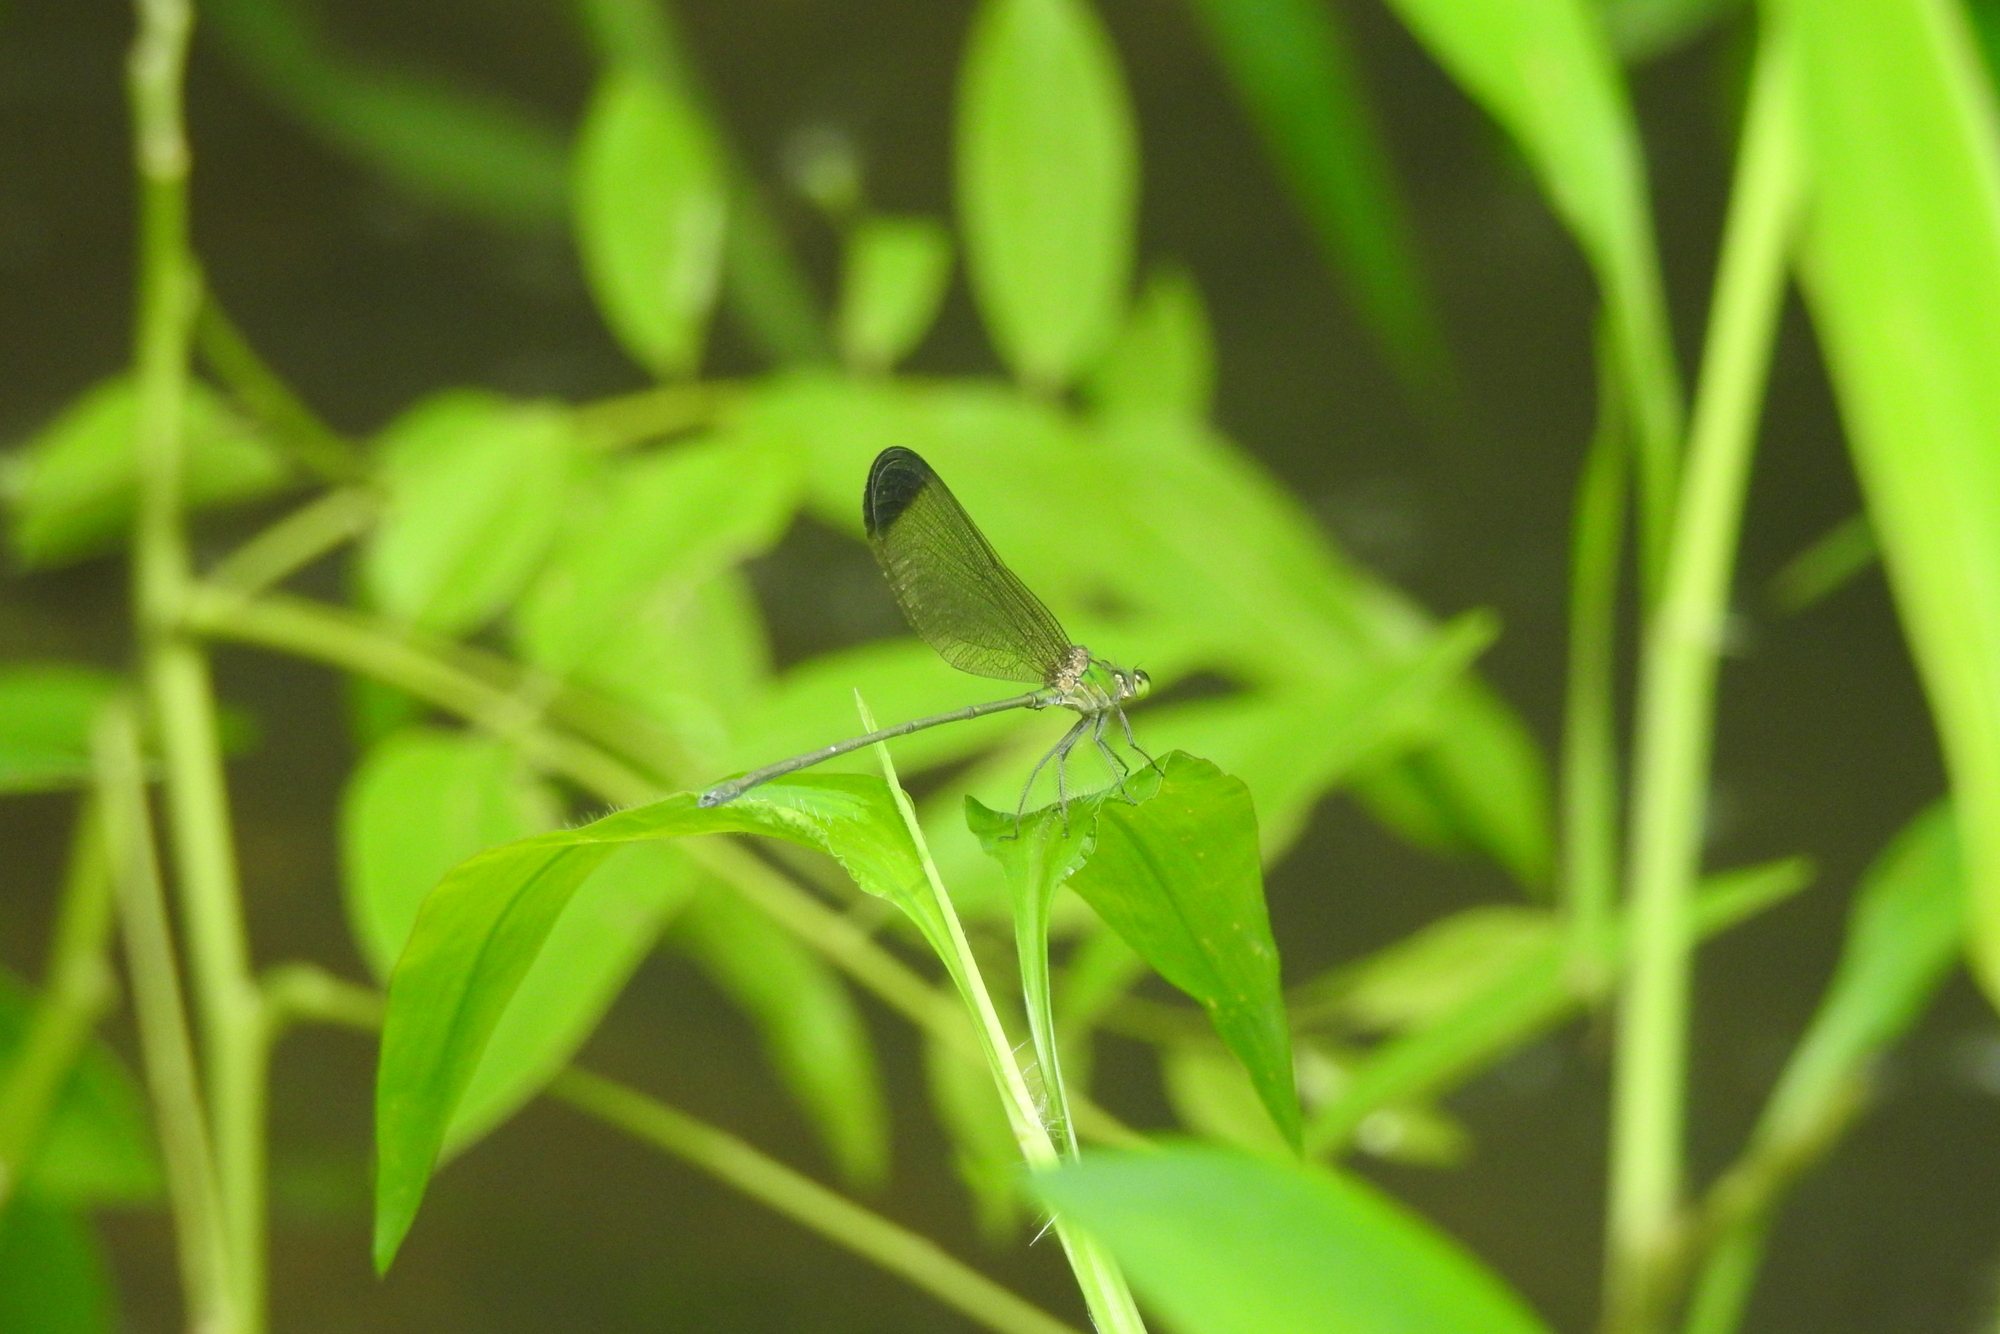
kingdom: Animalia
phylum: Arthropoda
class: Insecta
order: Odonata
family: Calopterygidae
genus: Vestalis
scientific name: Vestalis apicalis
